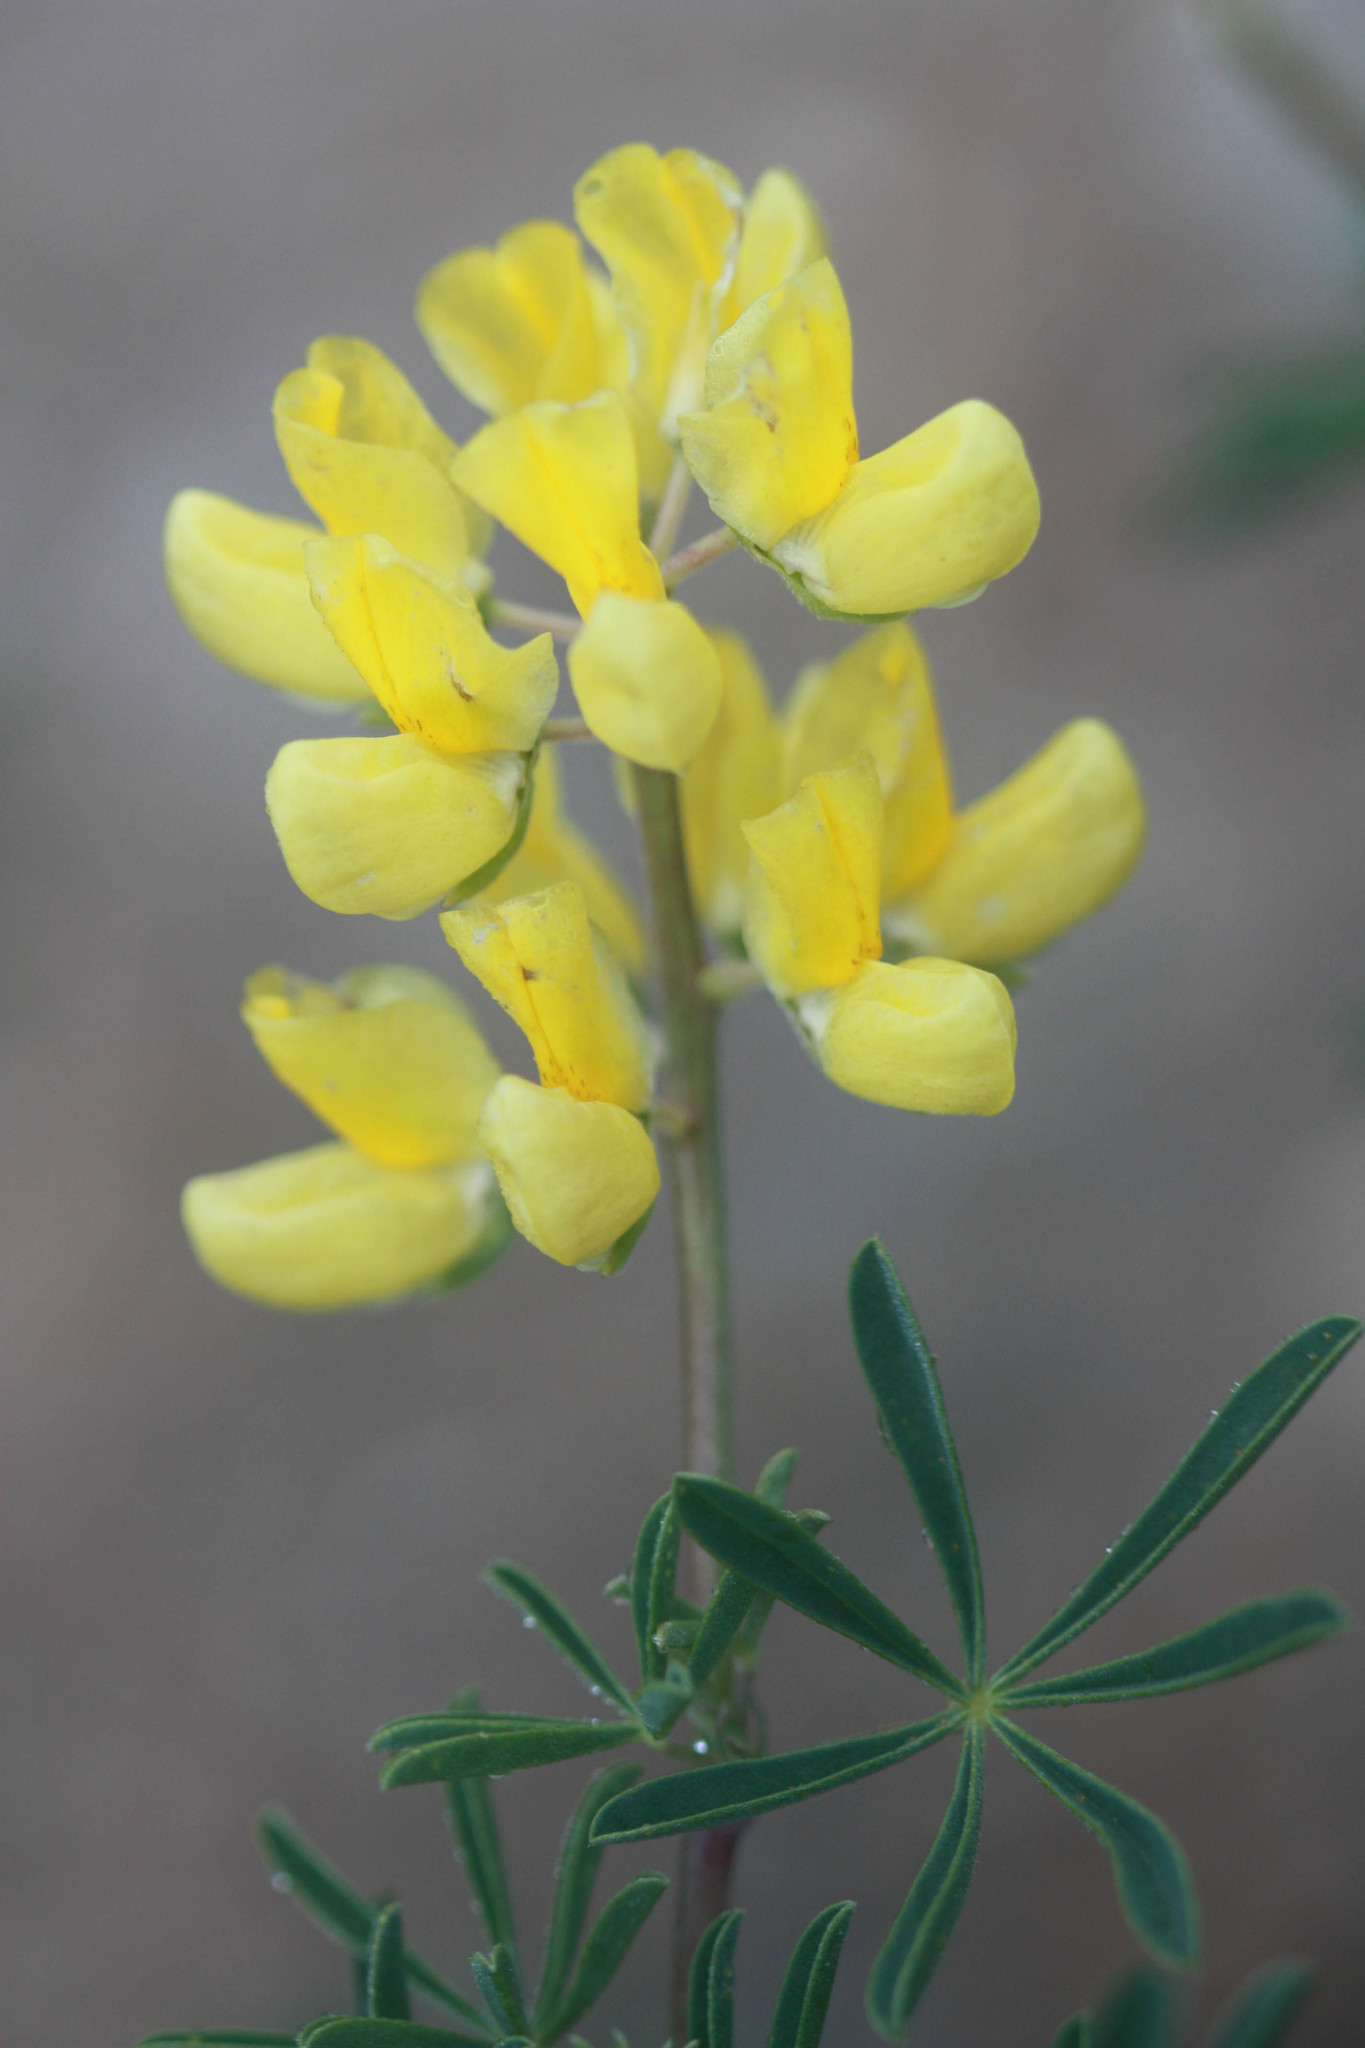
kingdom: Plantae
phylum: Tracheophyta
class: Magnoliopsida
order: Fabales
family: Fabaceae
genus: Lupinus
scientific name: Lupinus arboreus
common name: Yellow bush lupine
